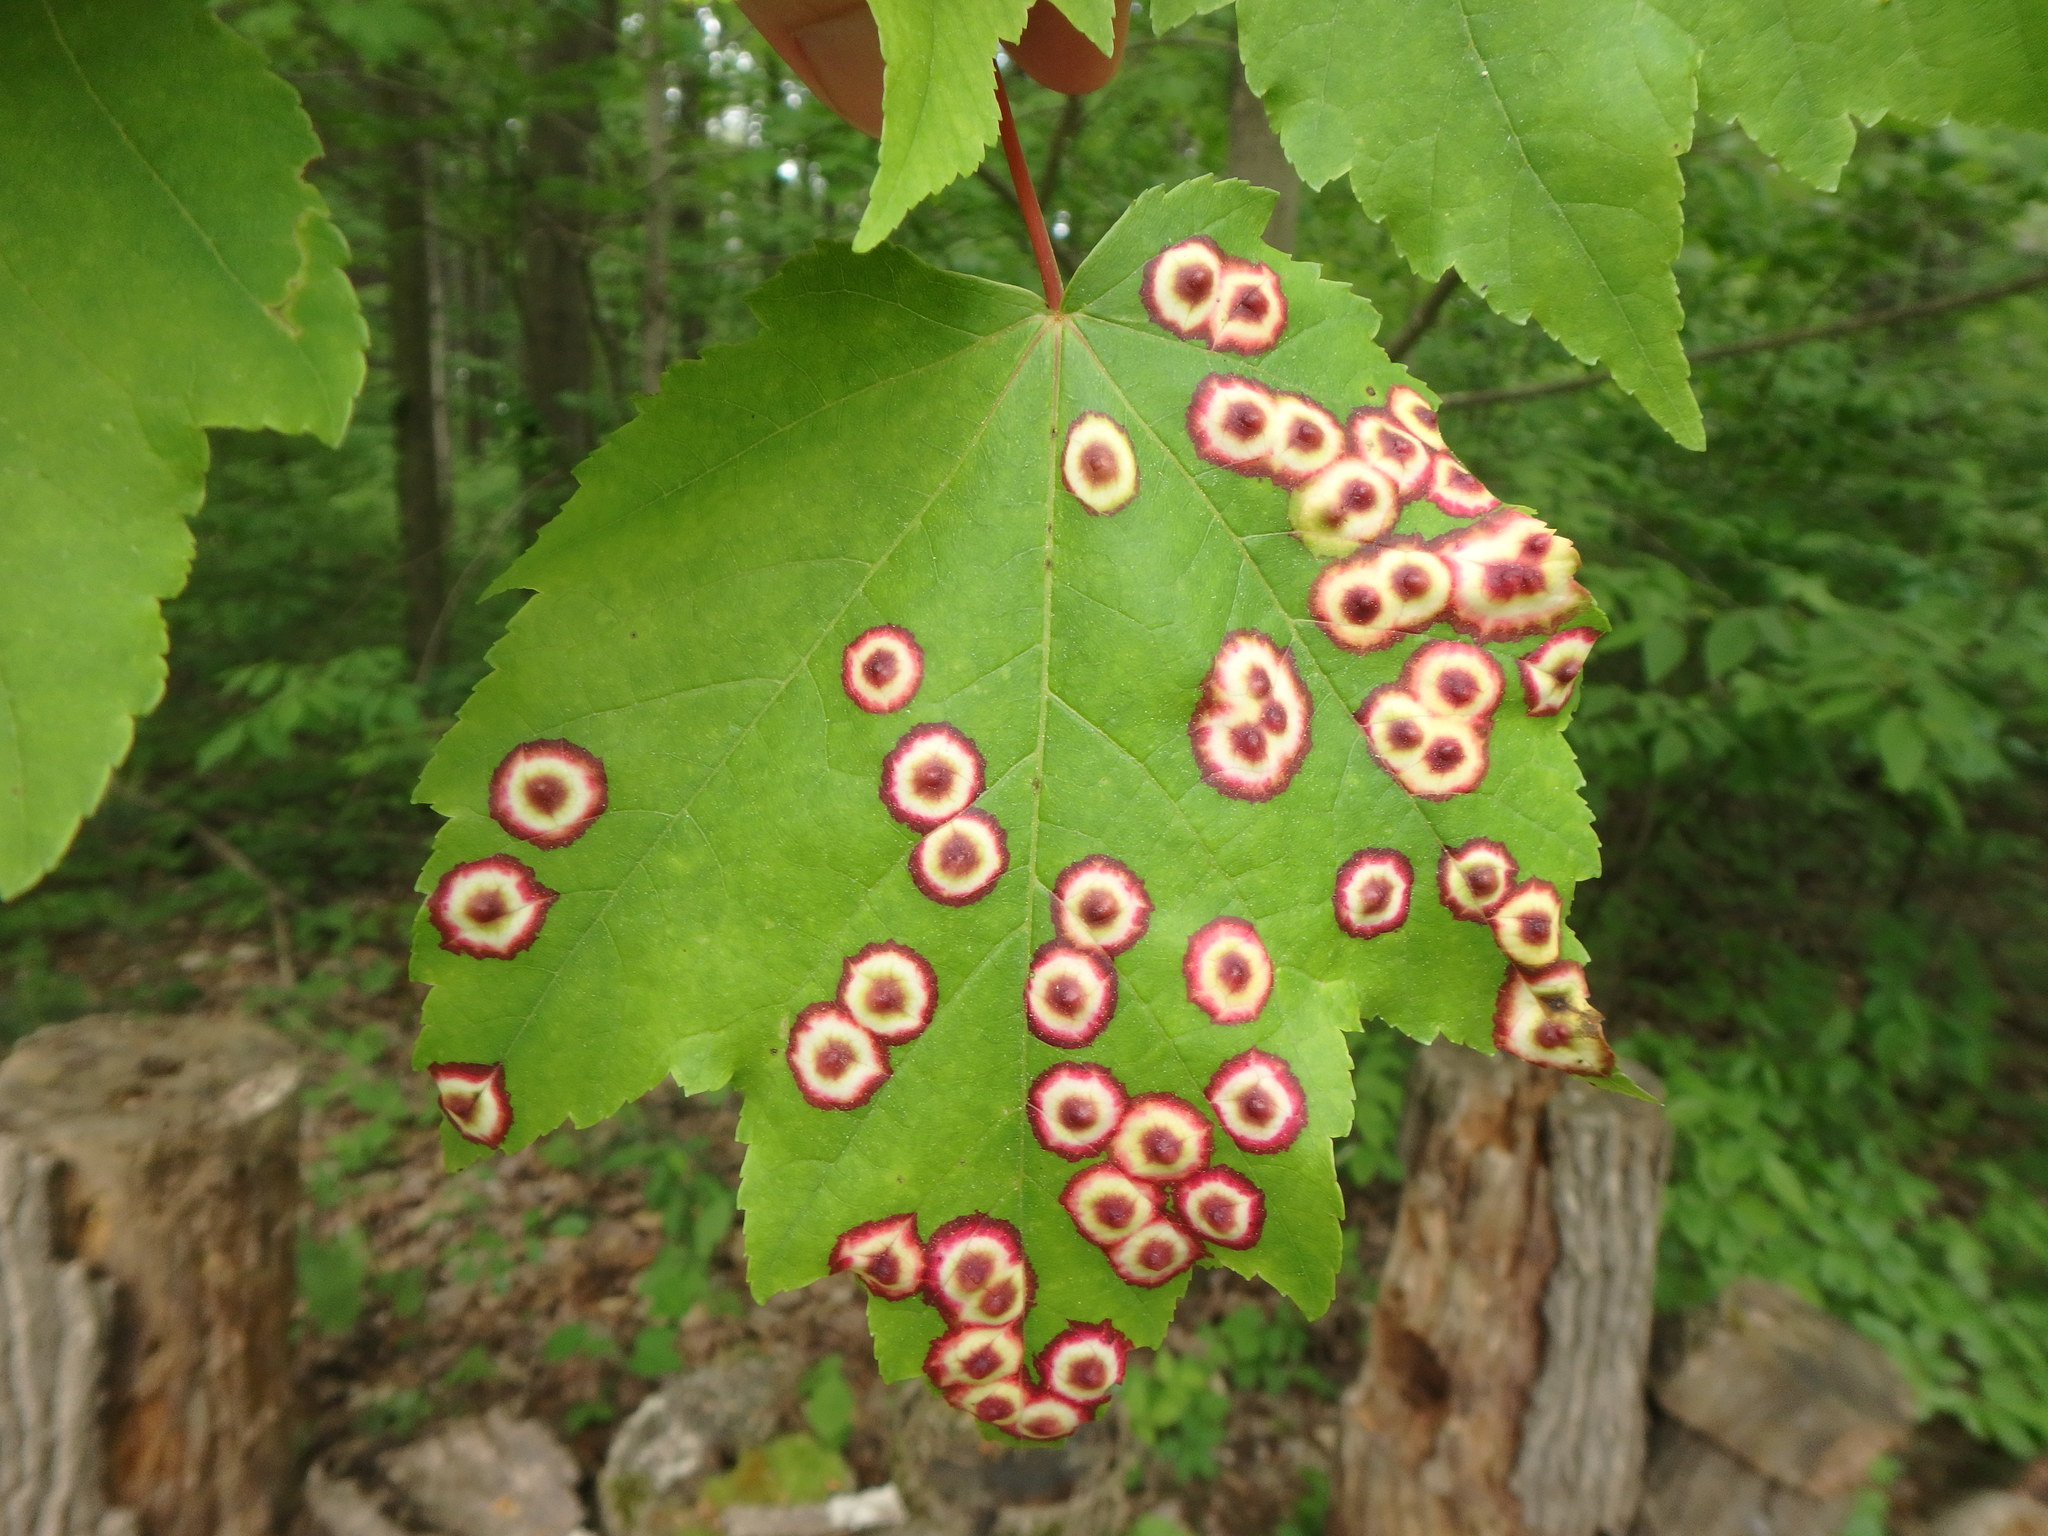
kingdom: Animalia
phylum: Arthropoda
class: Insecta
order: Diptera
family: Cecidomyiidae
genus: Acericecis
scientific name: Acericecis ocellaris
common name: Ocellate gall midge
